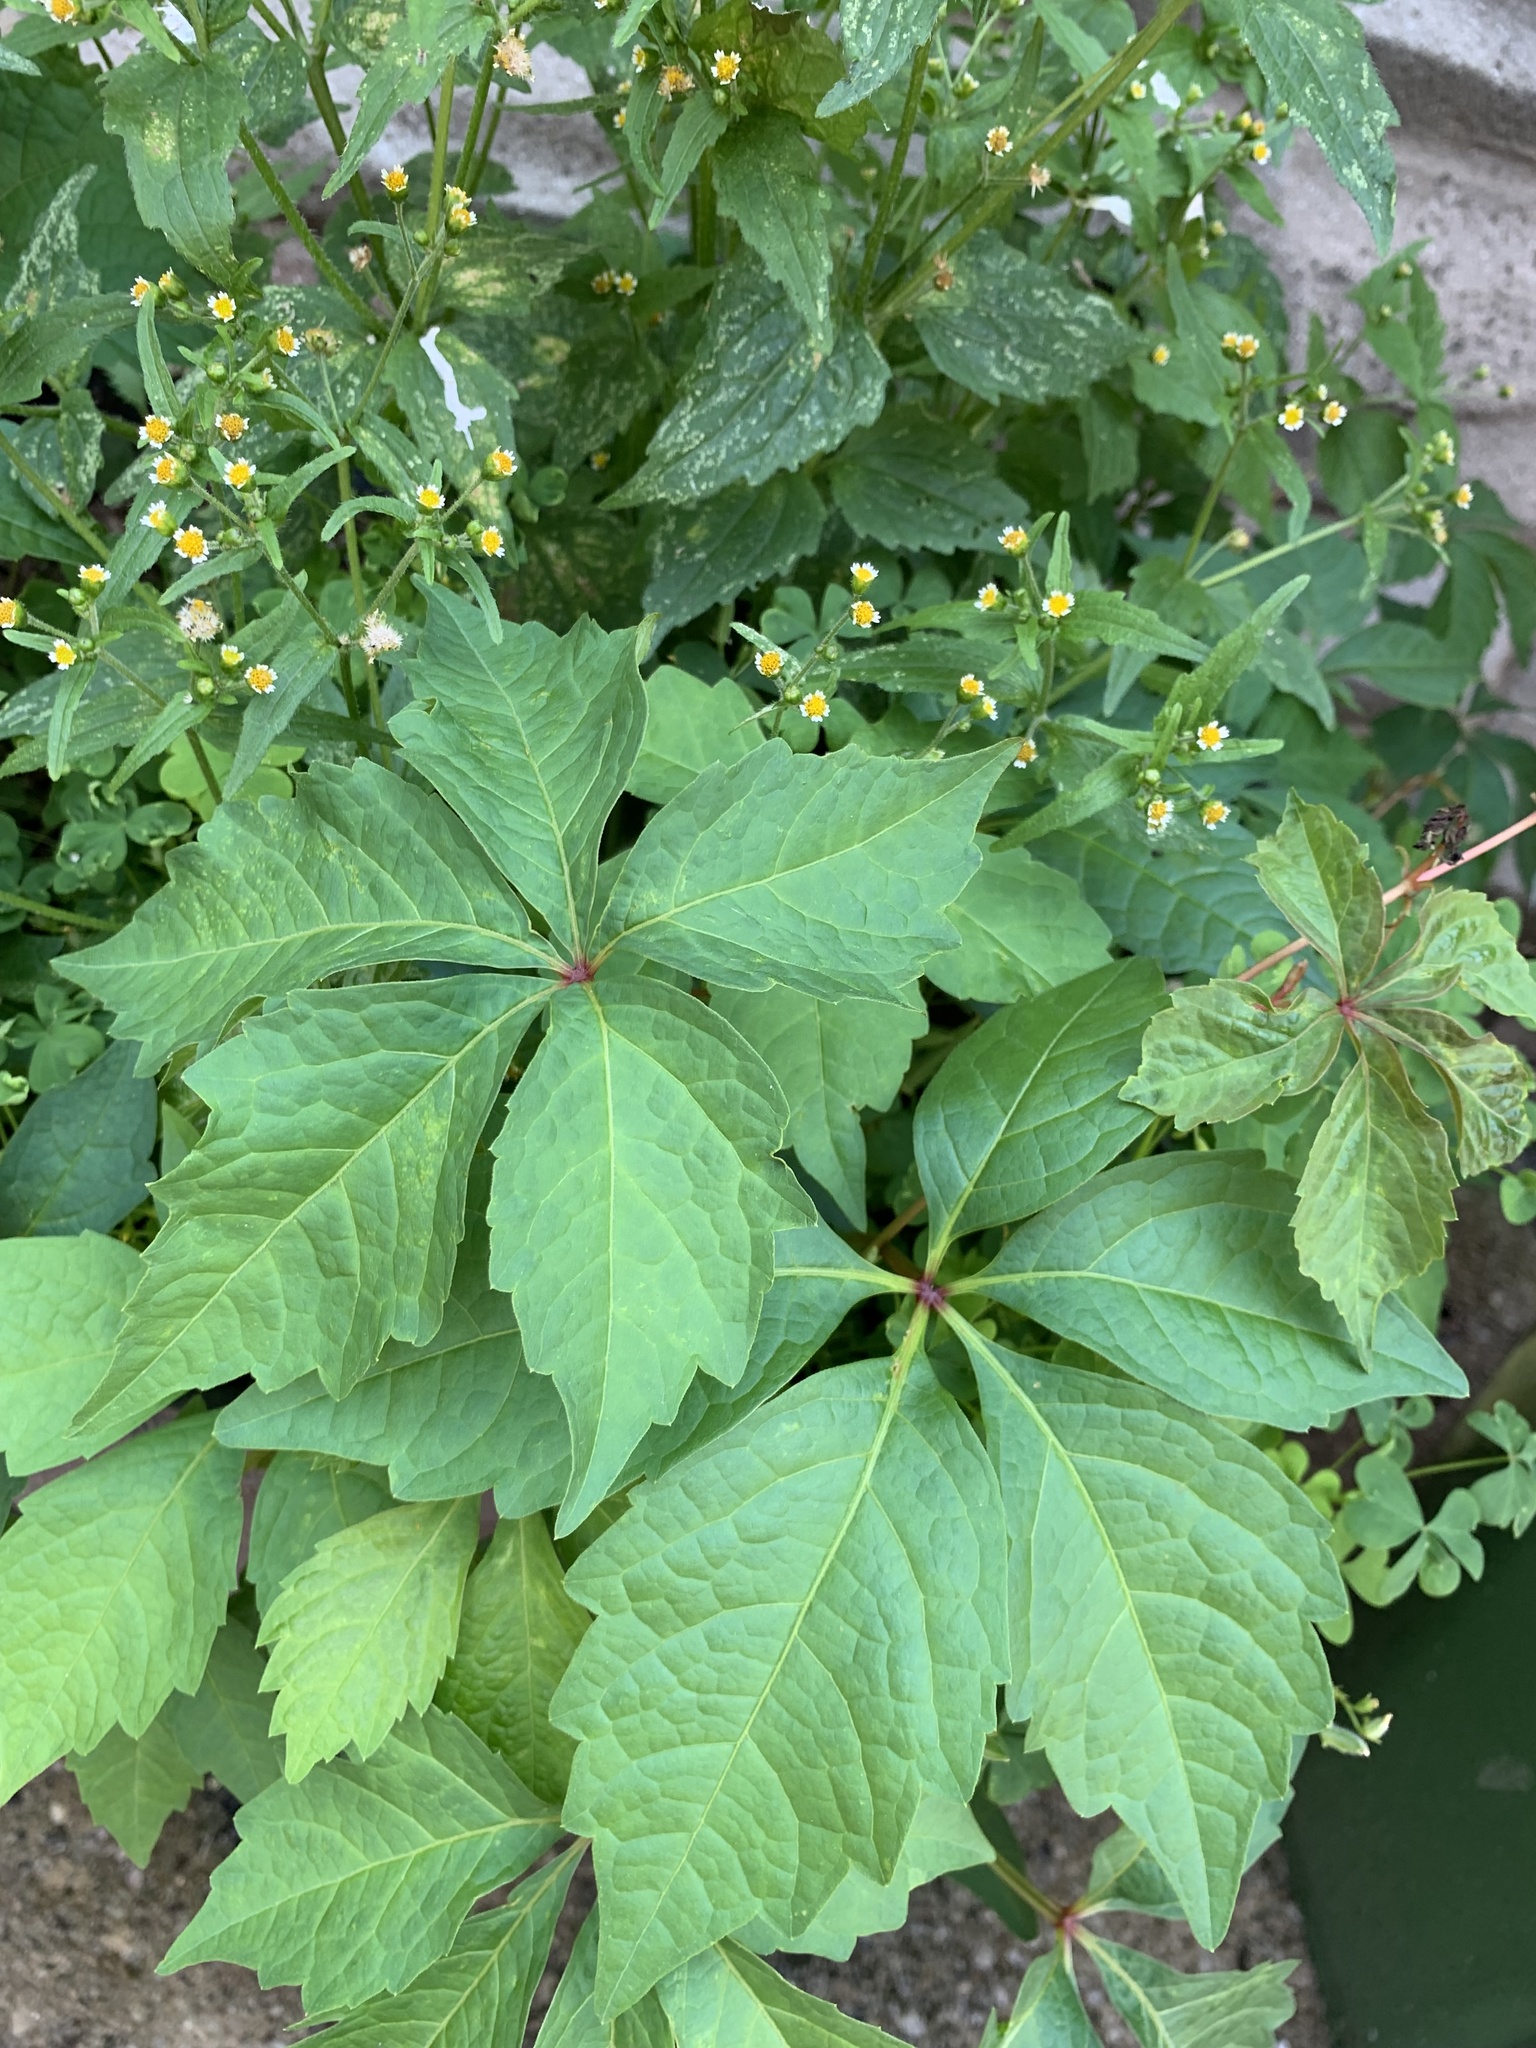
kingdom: Plantae
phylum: Tracheophyta
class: Magnoliopsida
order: Vitales
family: Vitaceae
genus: Parthenocissus
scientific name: Parthenocissus quinquefolia
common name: Virginia-creeper
